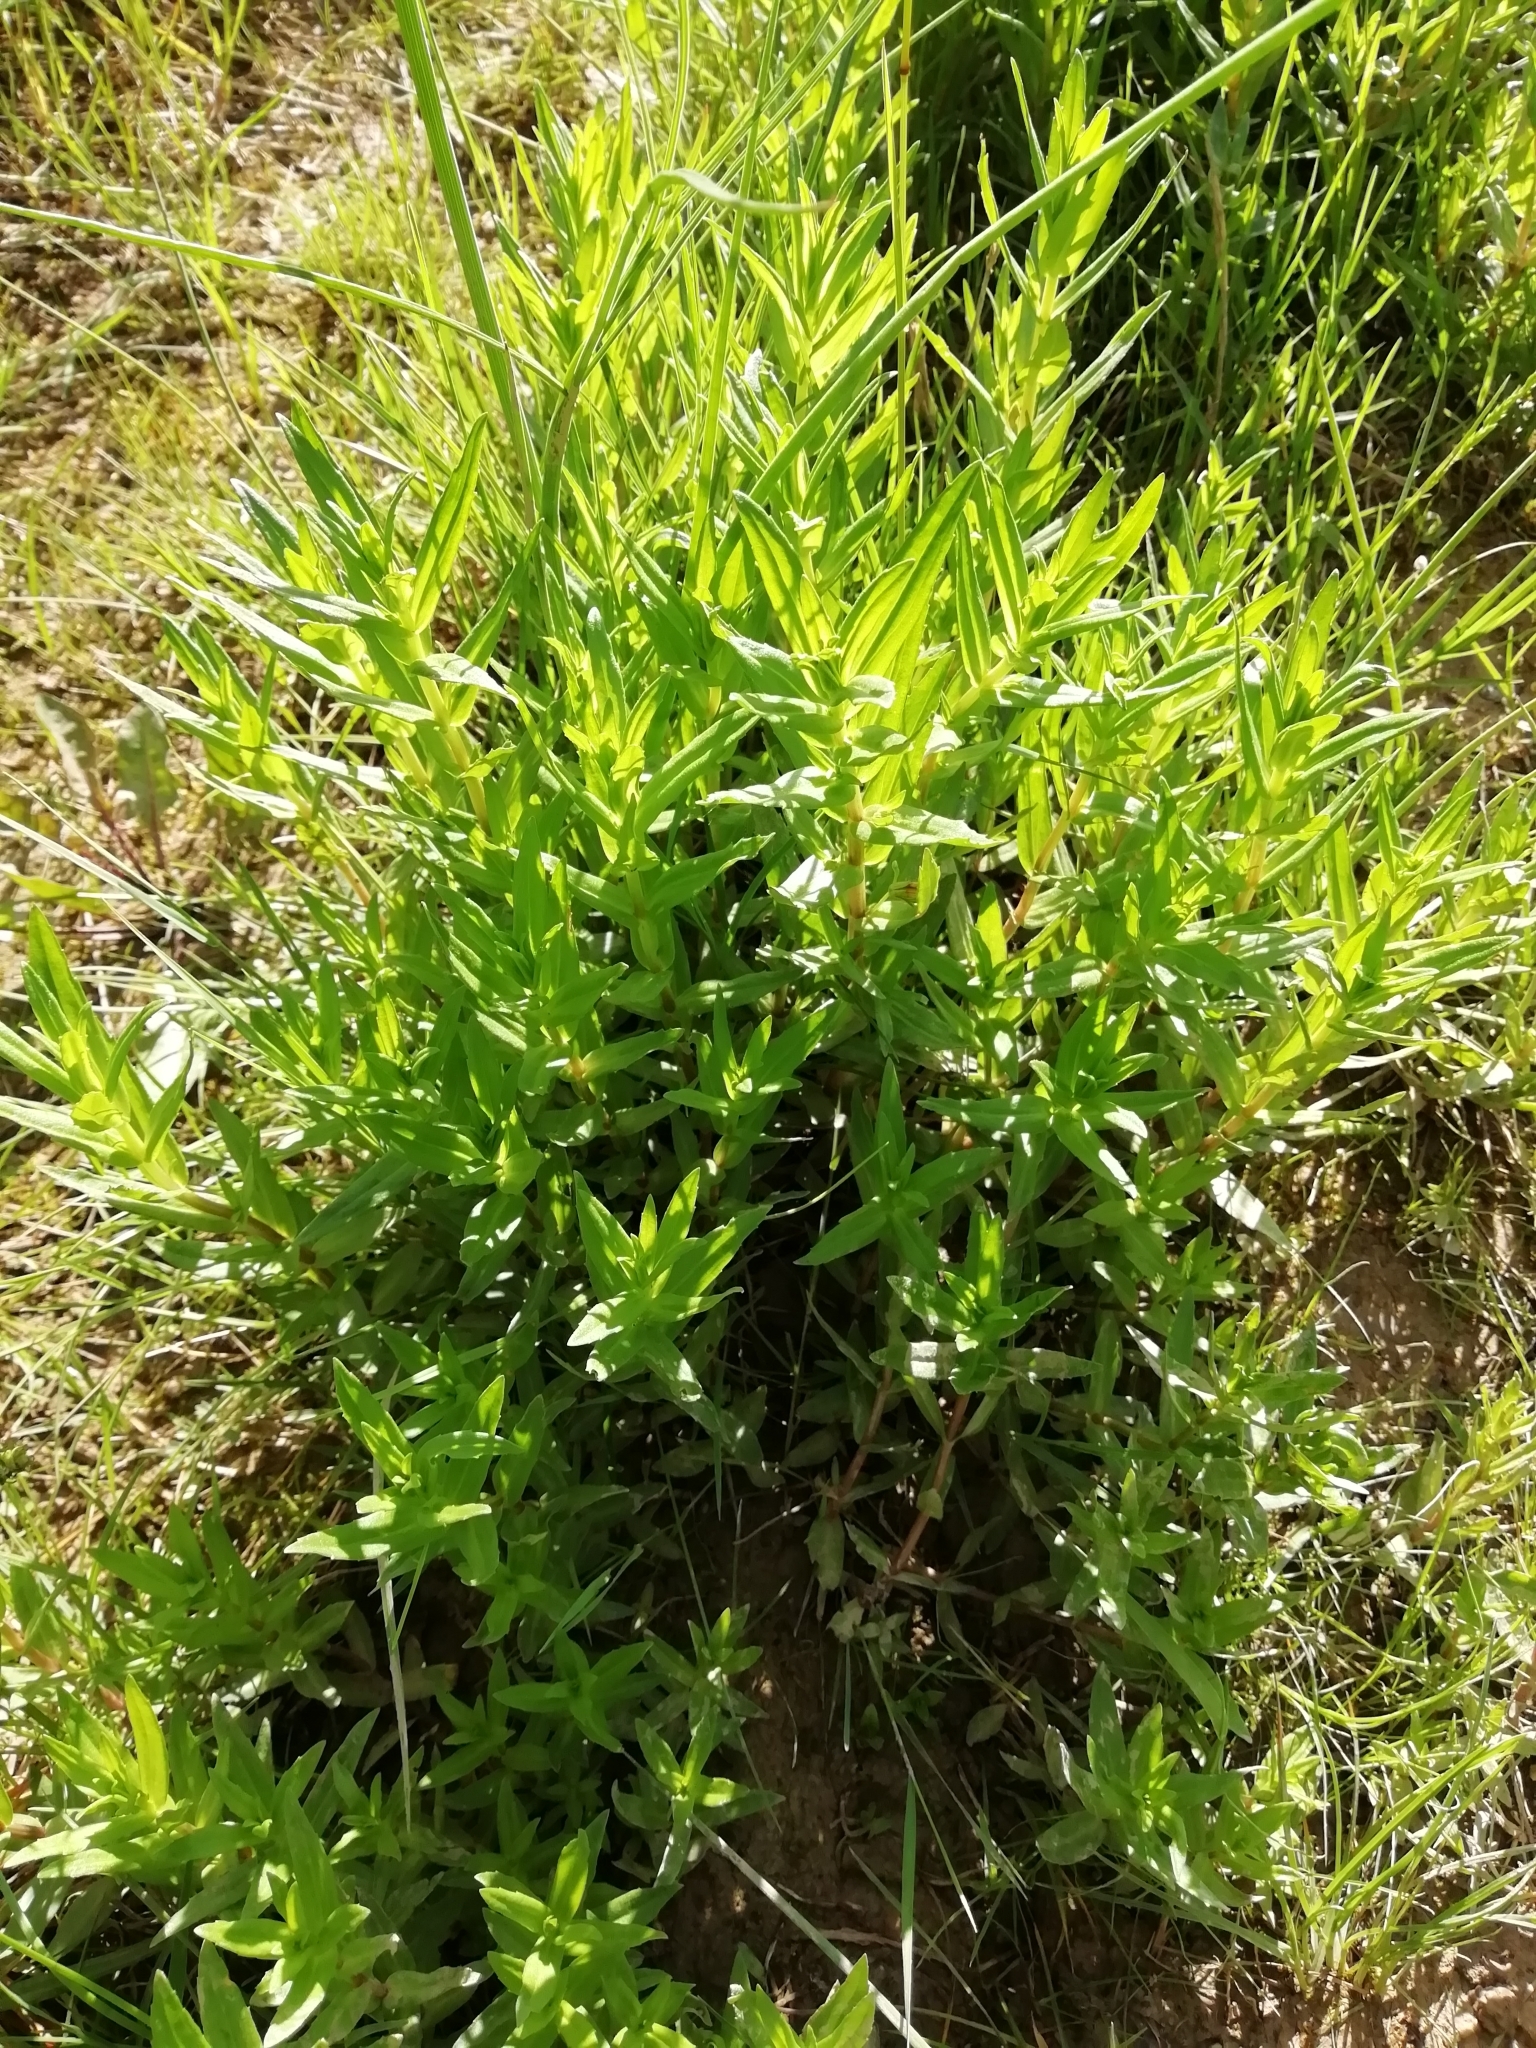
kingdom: Plantae
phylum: Tracheophyta
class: Magnoliopsida
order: Lamiales
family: Plantaginaceae
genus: Gratiola
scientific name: Gratiola officinalis
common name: Gratiola
